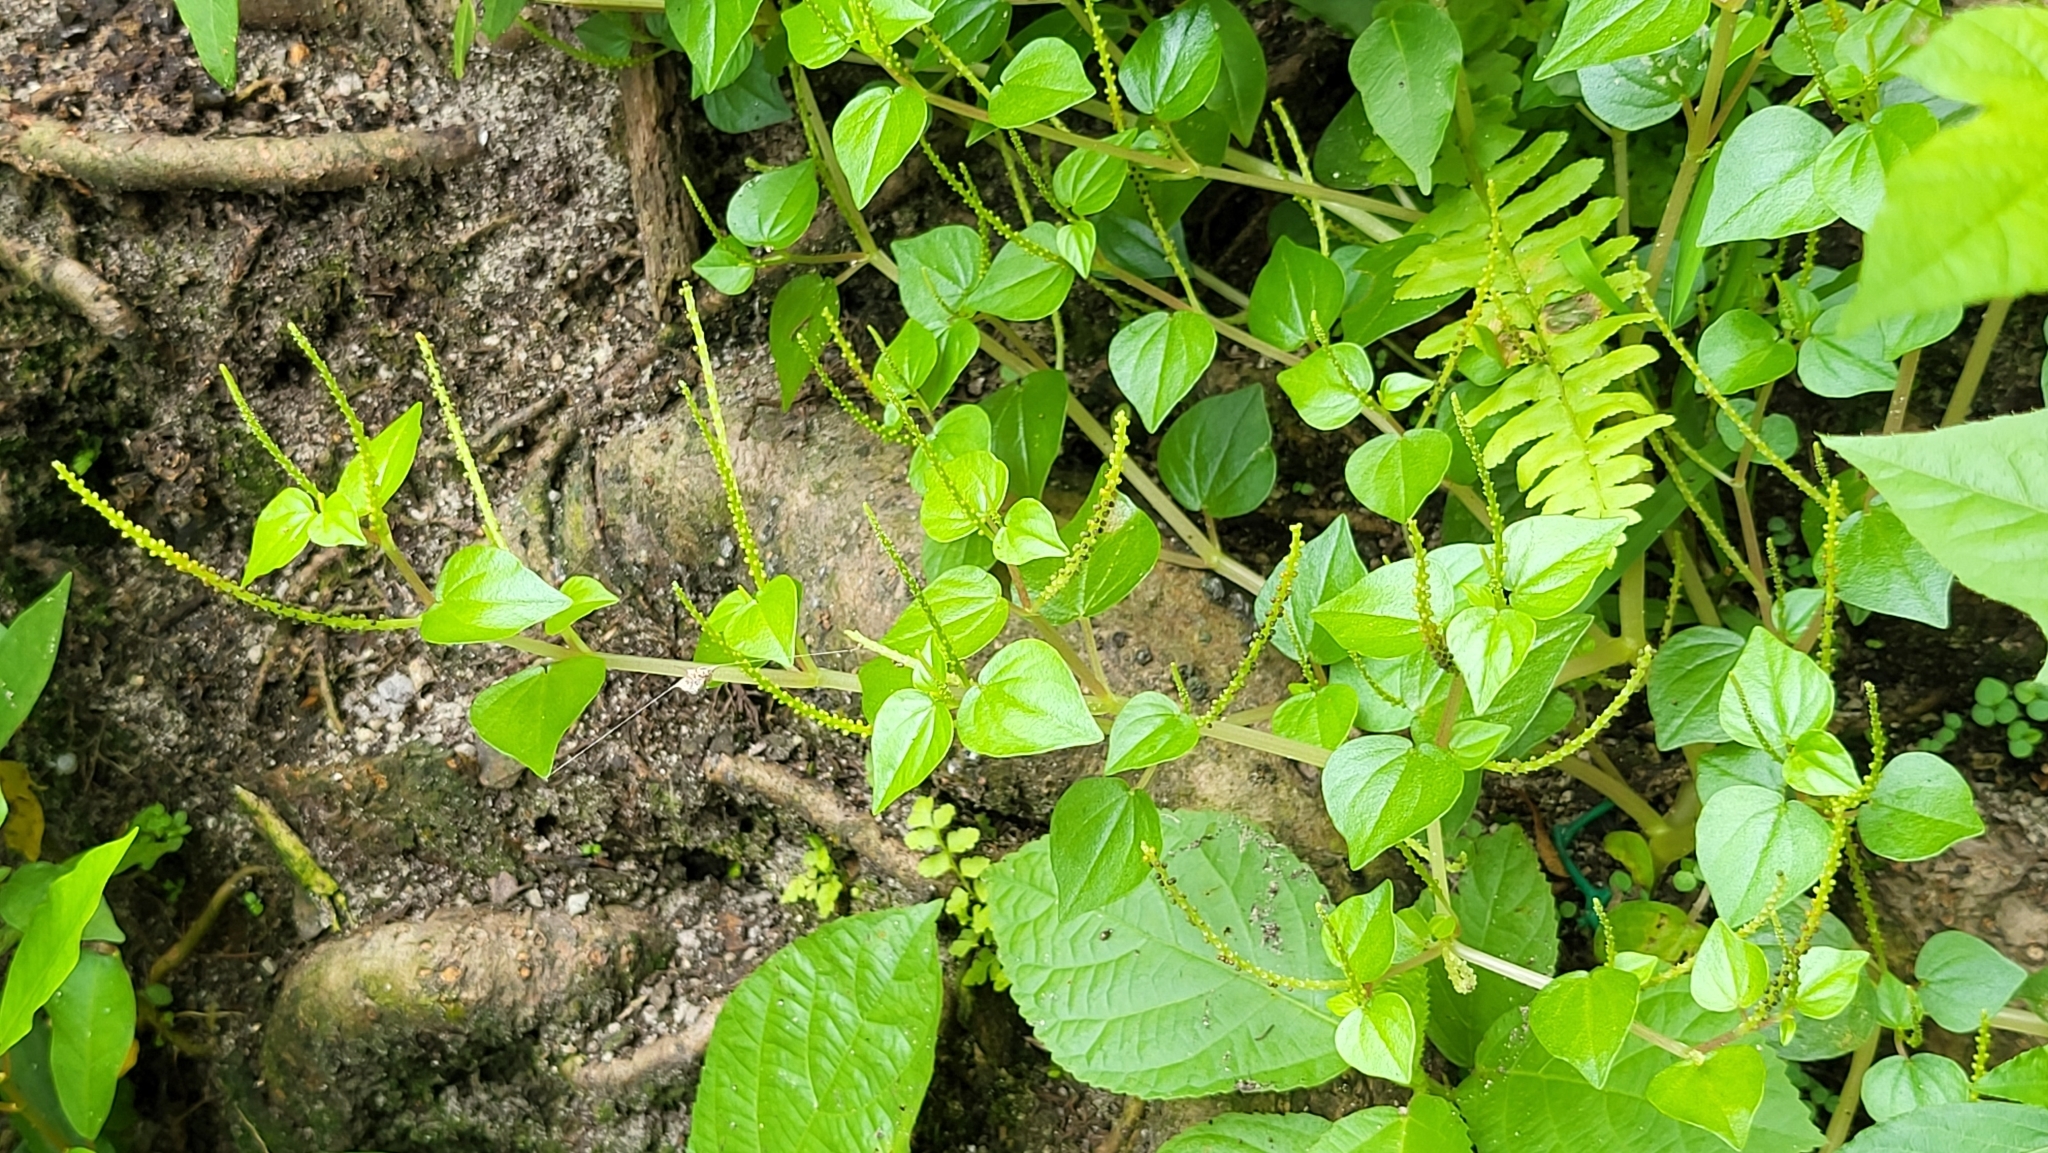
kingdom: Plantae
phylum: Tracheophyta
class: Magnoliopsida
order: Piperales
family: Piperaceae
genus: Peperomia
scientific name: Peperomia pellucida
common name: Man to man
